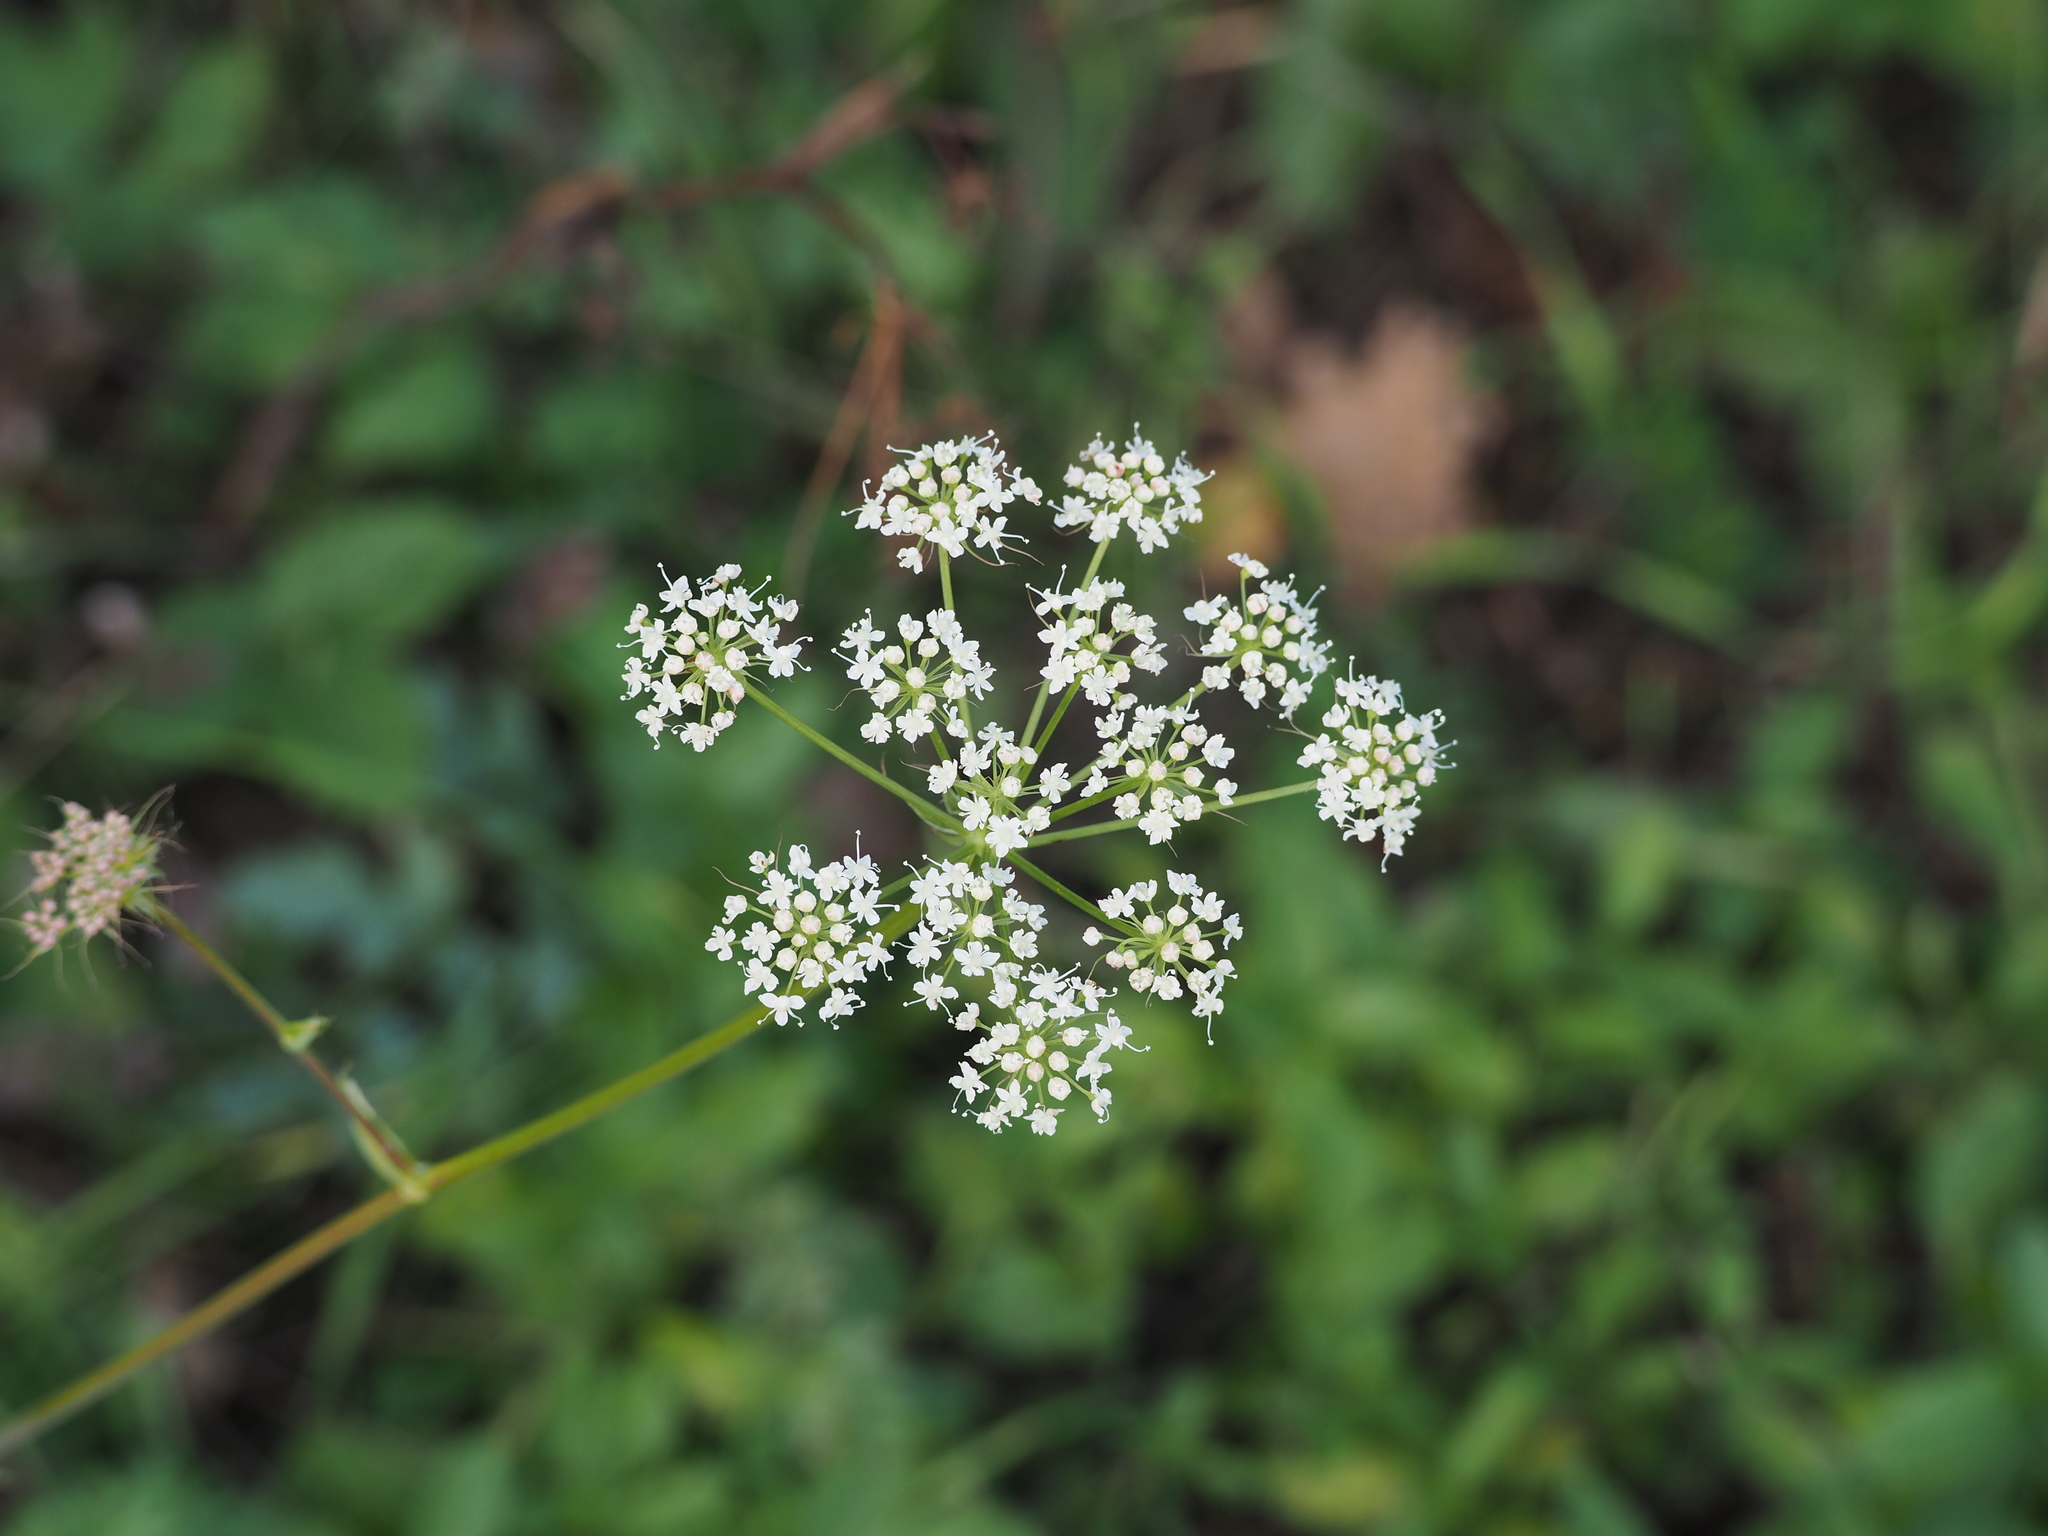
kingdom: Plantae
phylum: Tracheophyta
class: Magnoliopsida
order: Apiales
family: Apiaceae
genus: Cervaria
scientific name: Cervaria rivini
